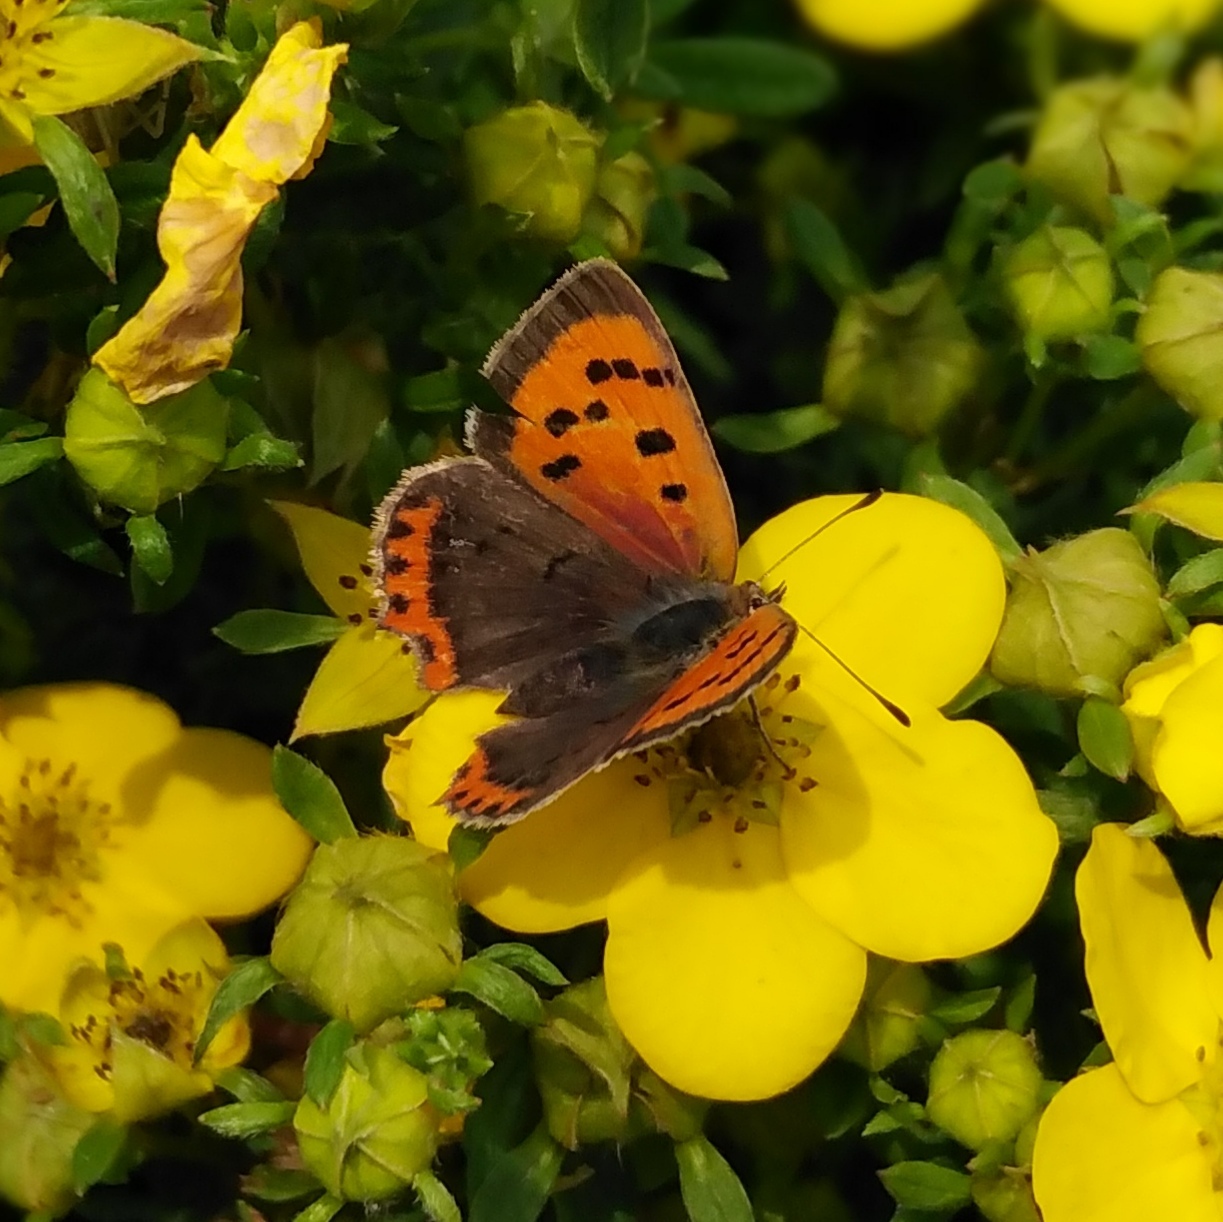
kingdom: Animalia
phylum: Arthropoda
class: Insecta
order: Lepidoptera
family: Lycaenidae
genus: Lycaena
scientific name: Lycaena phlaeas
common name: Small copper
